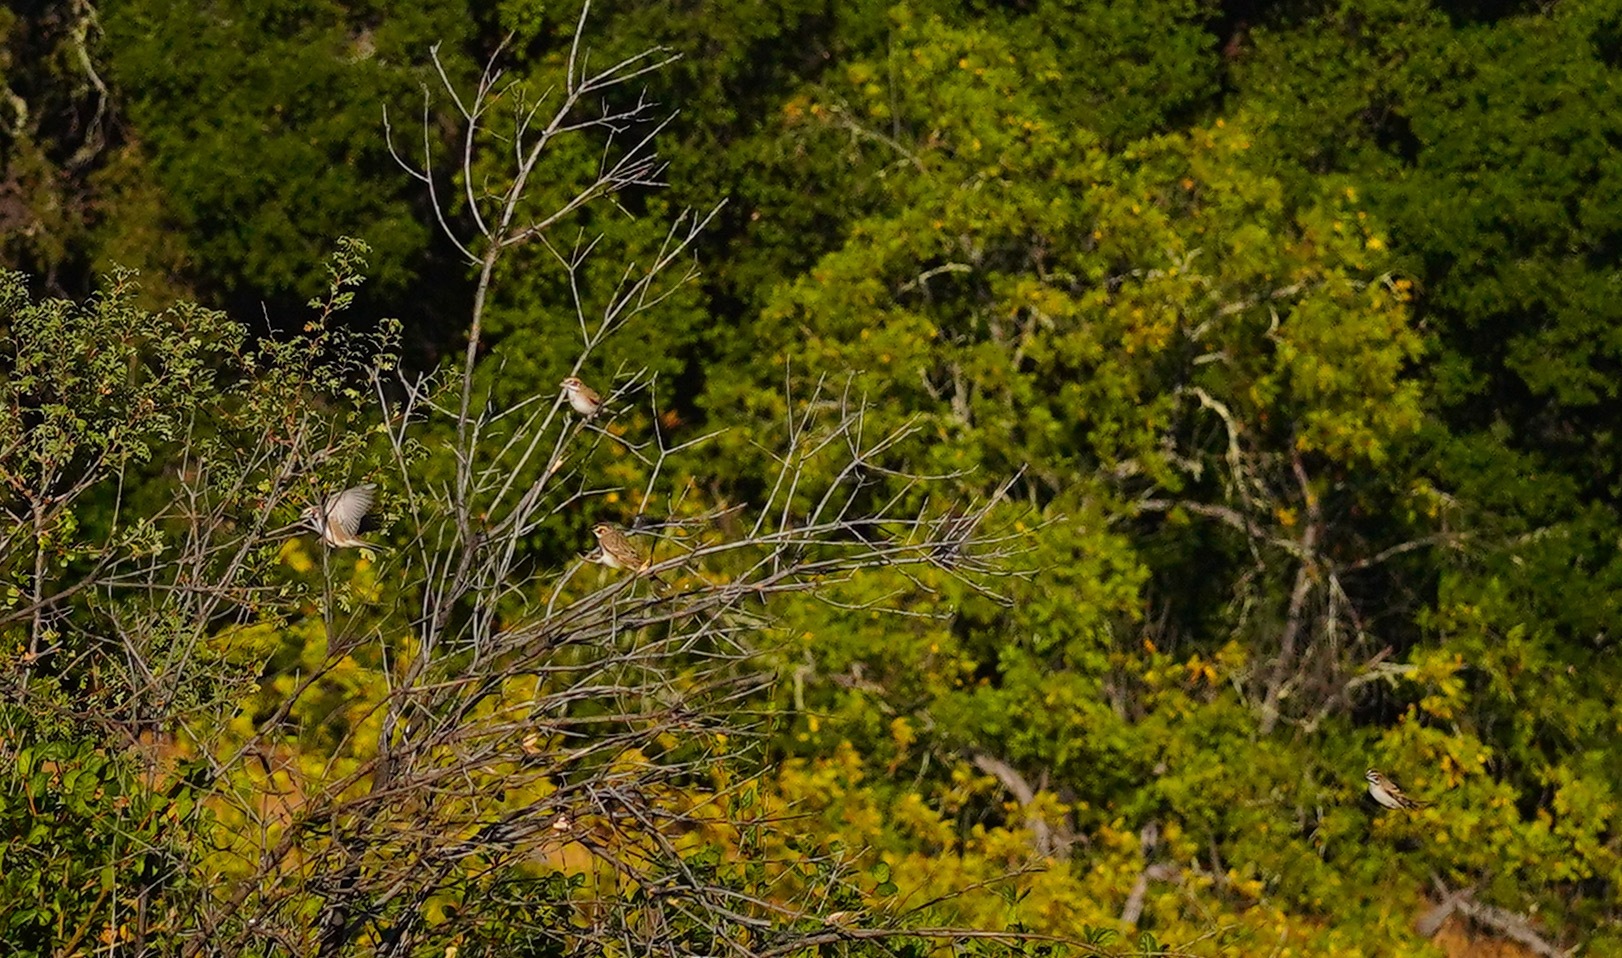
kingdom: Animalia
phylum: Chordata
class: Aves
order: Passeriformes
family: Passerellidae
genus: Chondestes
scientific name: Chondestes grammacus
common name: Lark sparrow
